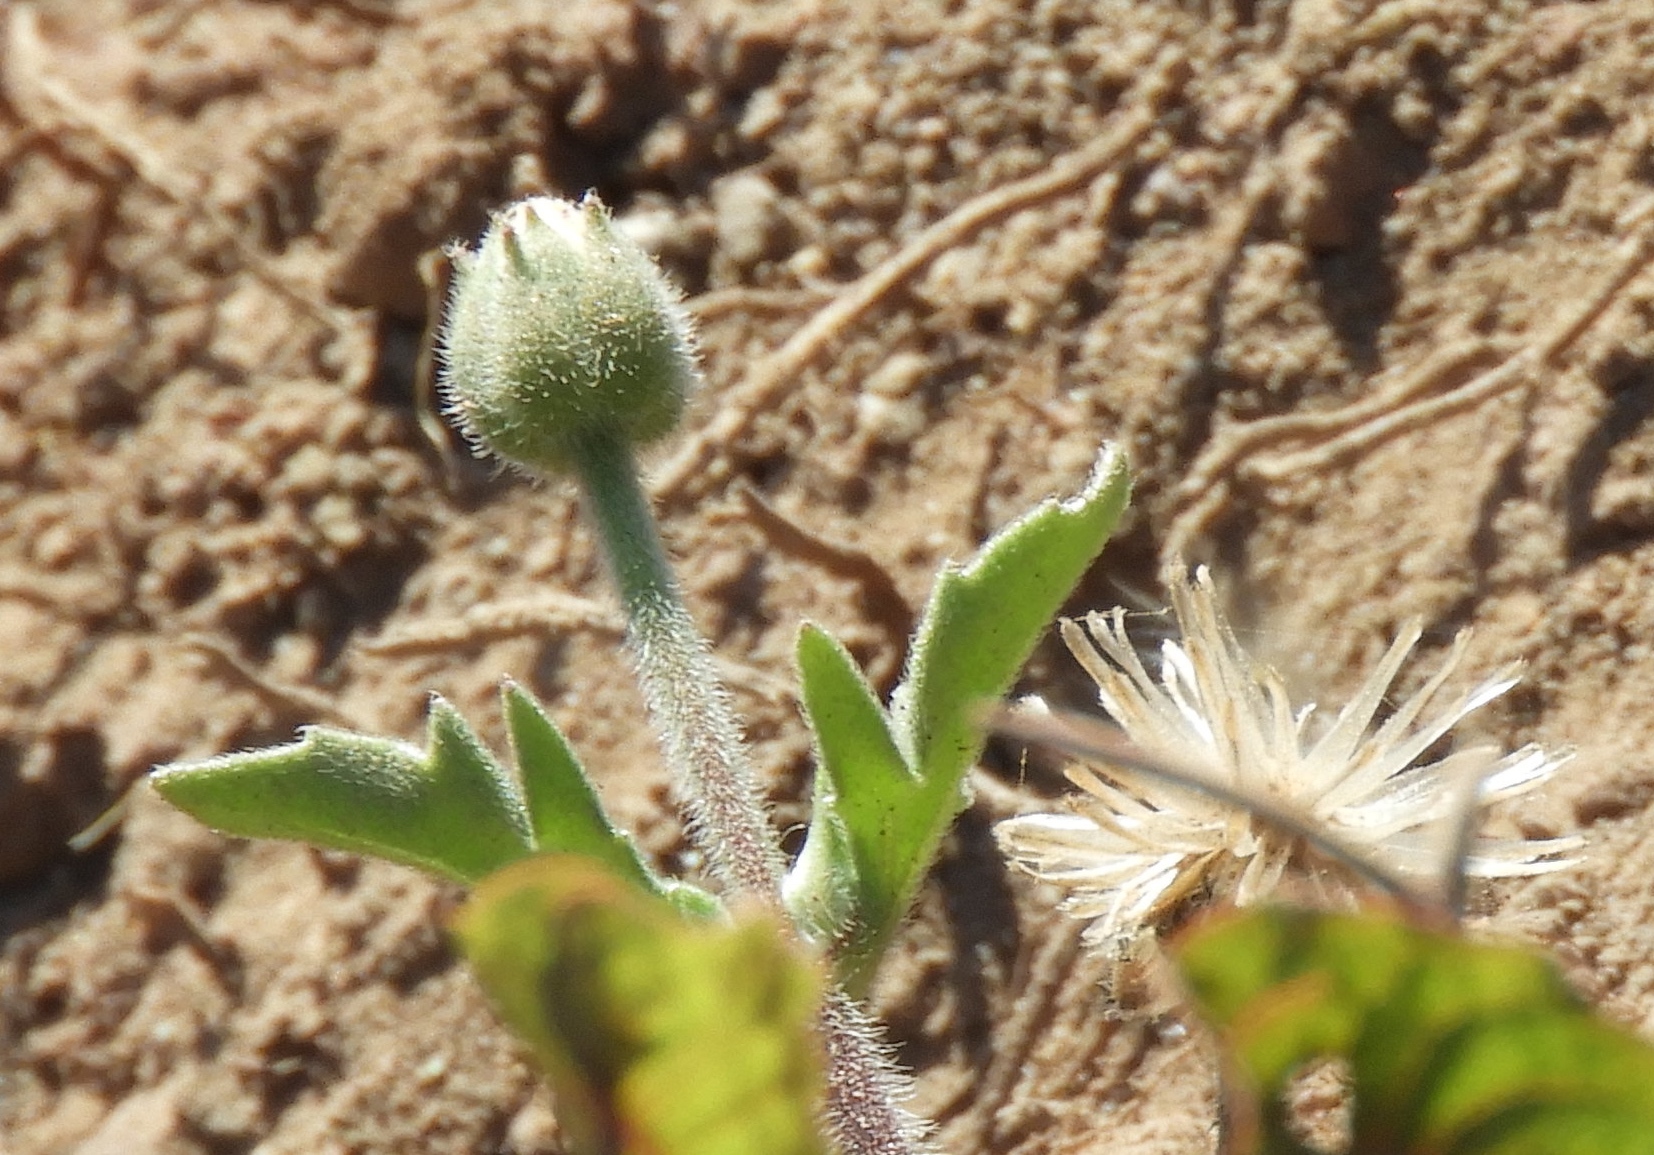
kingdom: Plantae
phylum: Tracheophyta
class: Magnoliopsida
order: Asterales
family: Asteraceae
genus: Tridax
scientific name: Tridax procumbens
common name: Coatbuttons
